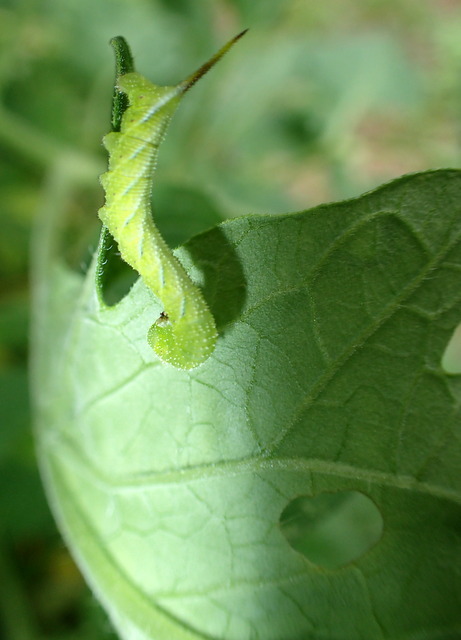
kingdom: Animalia
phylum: Arthropoda
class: Insecta
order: Lepidoptera
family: Sphingidae
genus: Manduca
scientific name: Manduca sexta
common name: Carolina sphinx
